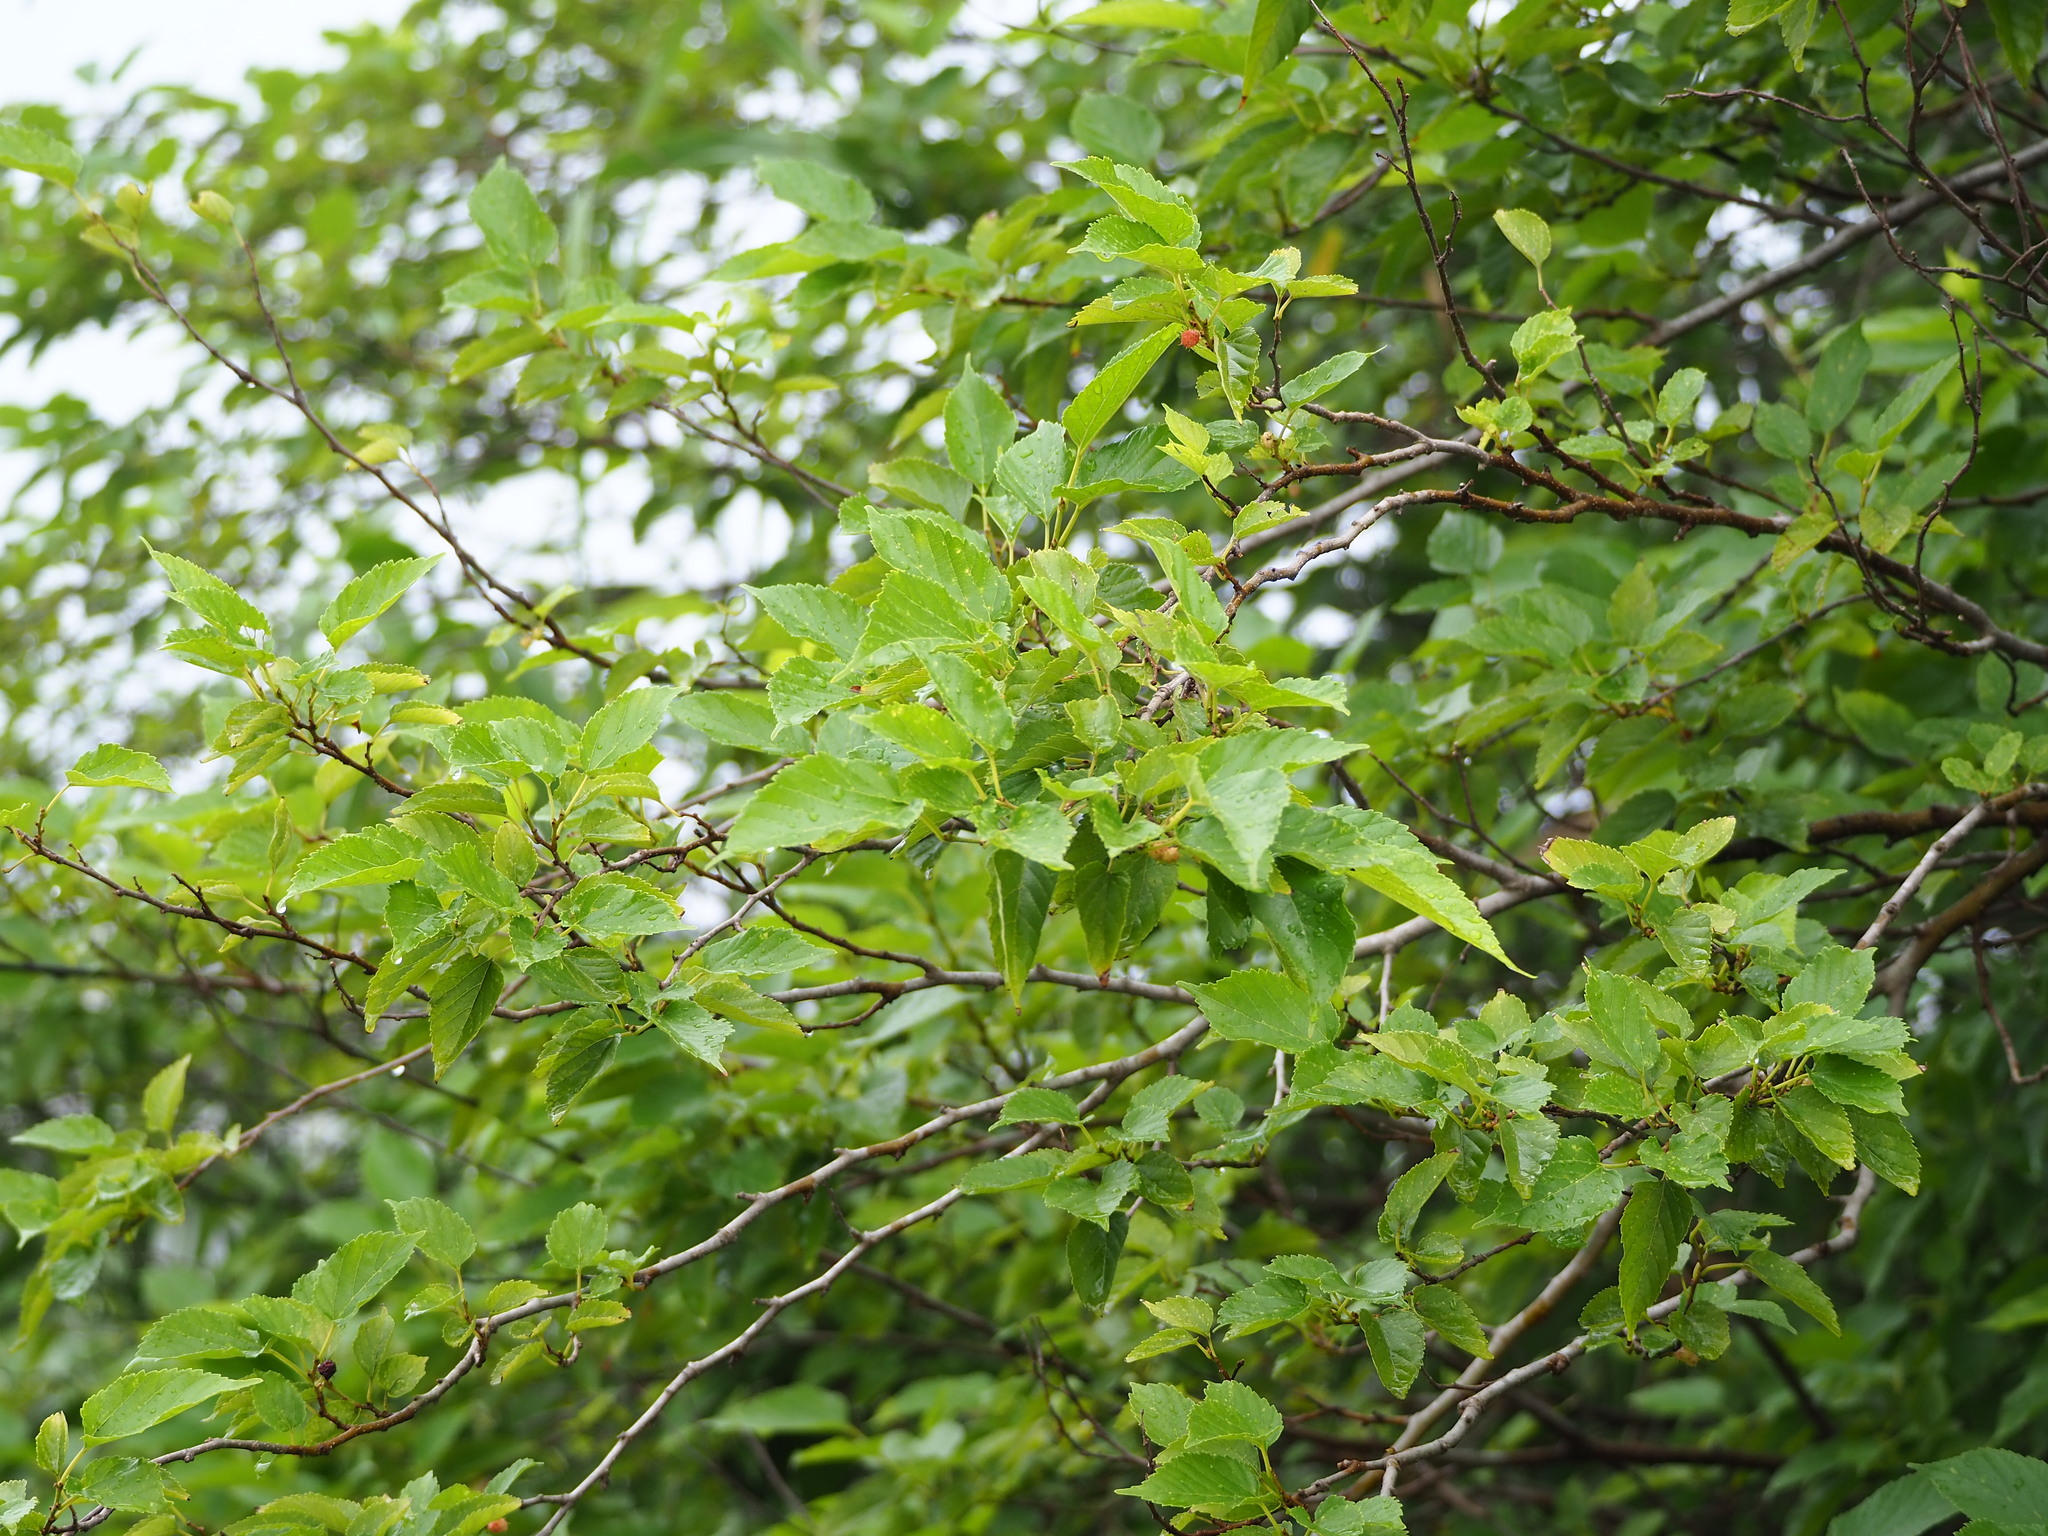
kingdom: Plantae
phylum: Tracheophyta
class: Magnoliopsida
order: Rosales
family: Moraceae
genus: Morus
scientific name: Morus indica
